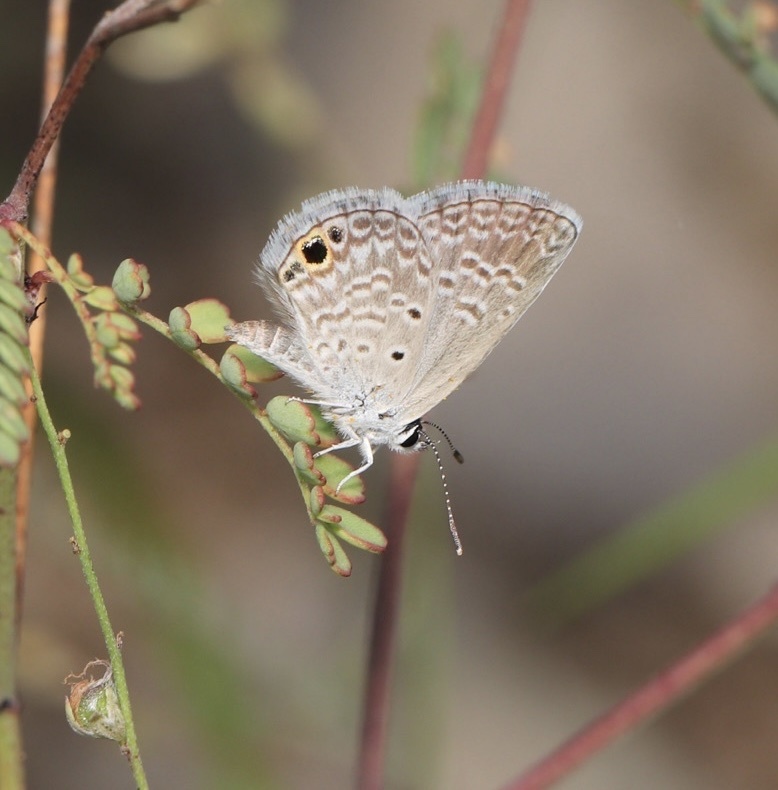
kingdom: Animalia
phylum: Arthropoda
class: Insecta
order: Lepidoptera
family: Lycaenidae
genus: Echinargus
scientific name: Echinargus isola
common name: Reakirt's blue
